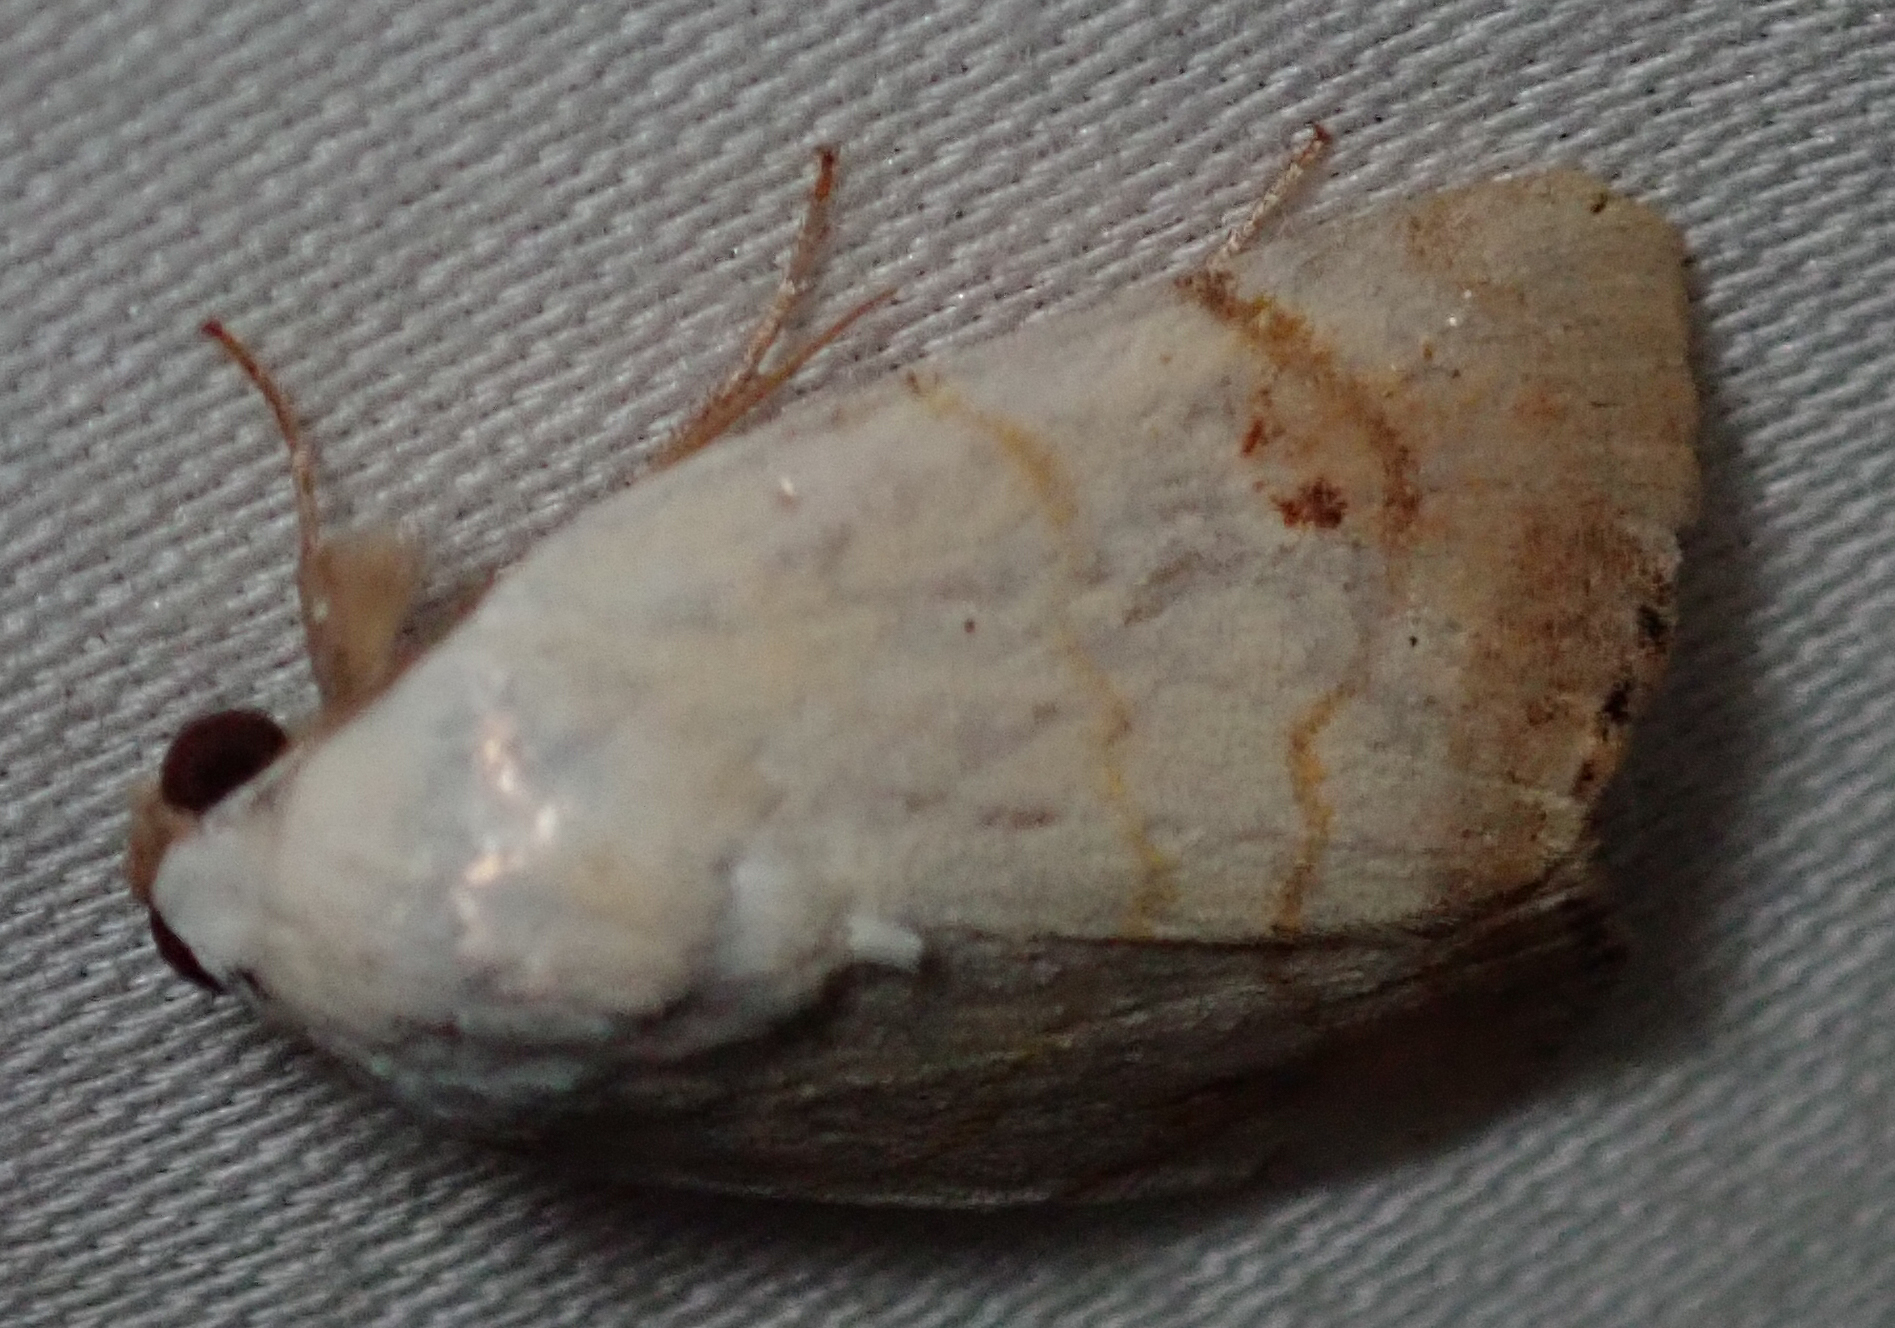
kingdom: Animalia
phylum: Arthropoda
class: Insecta
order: Lepidoptera
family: Nolidae
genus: Xanthodes
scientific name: Xanthodes albago
